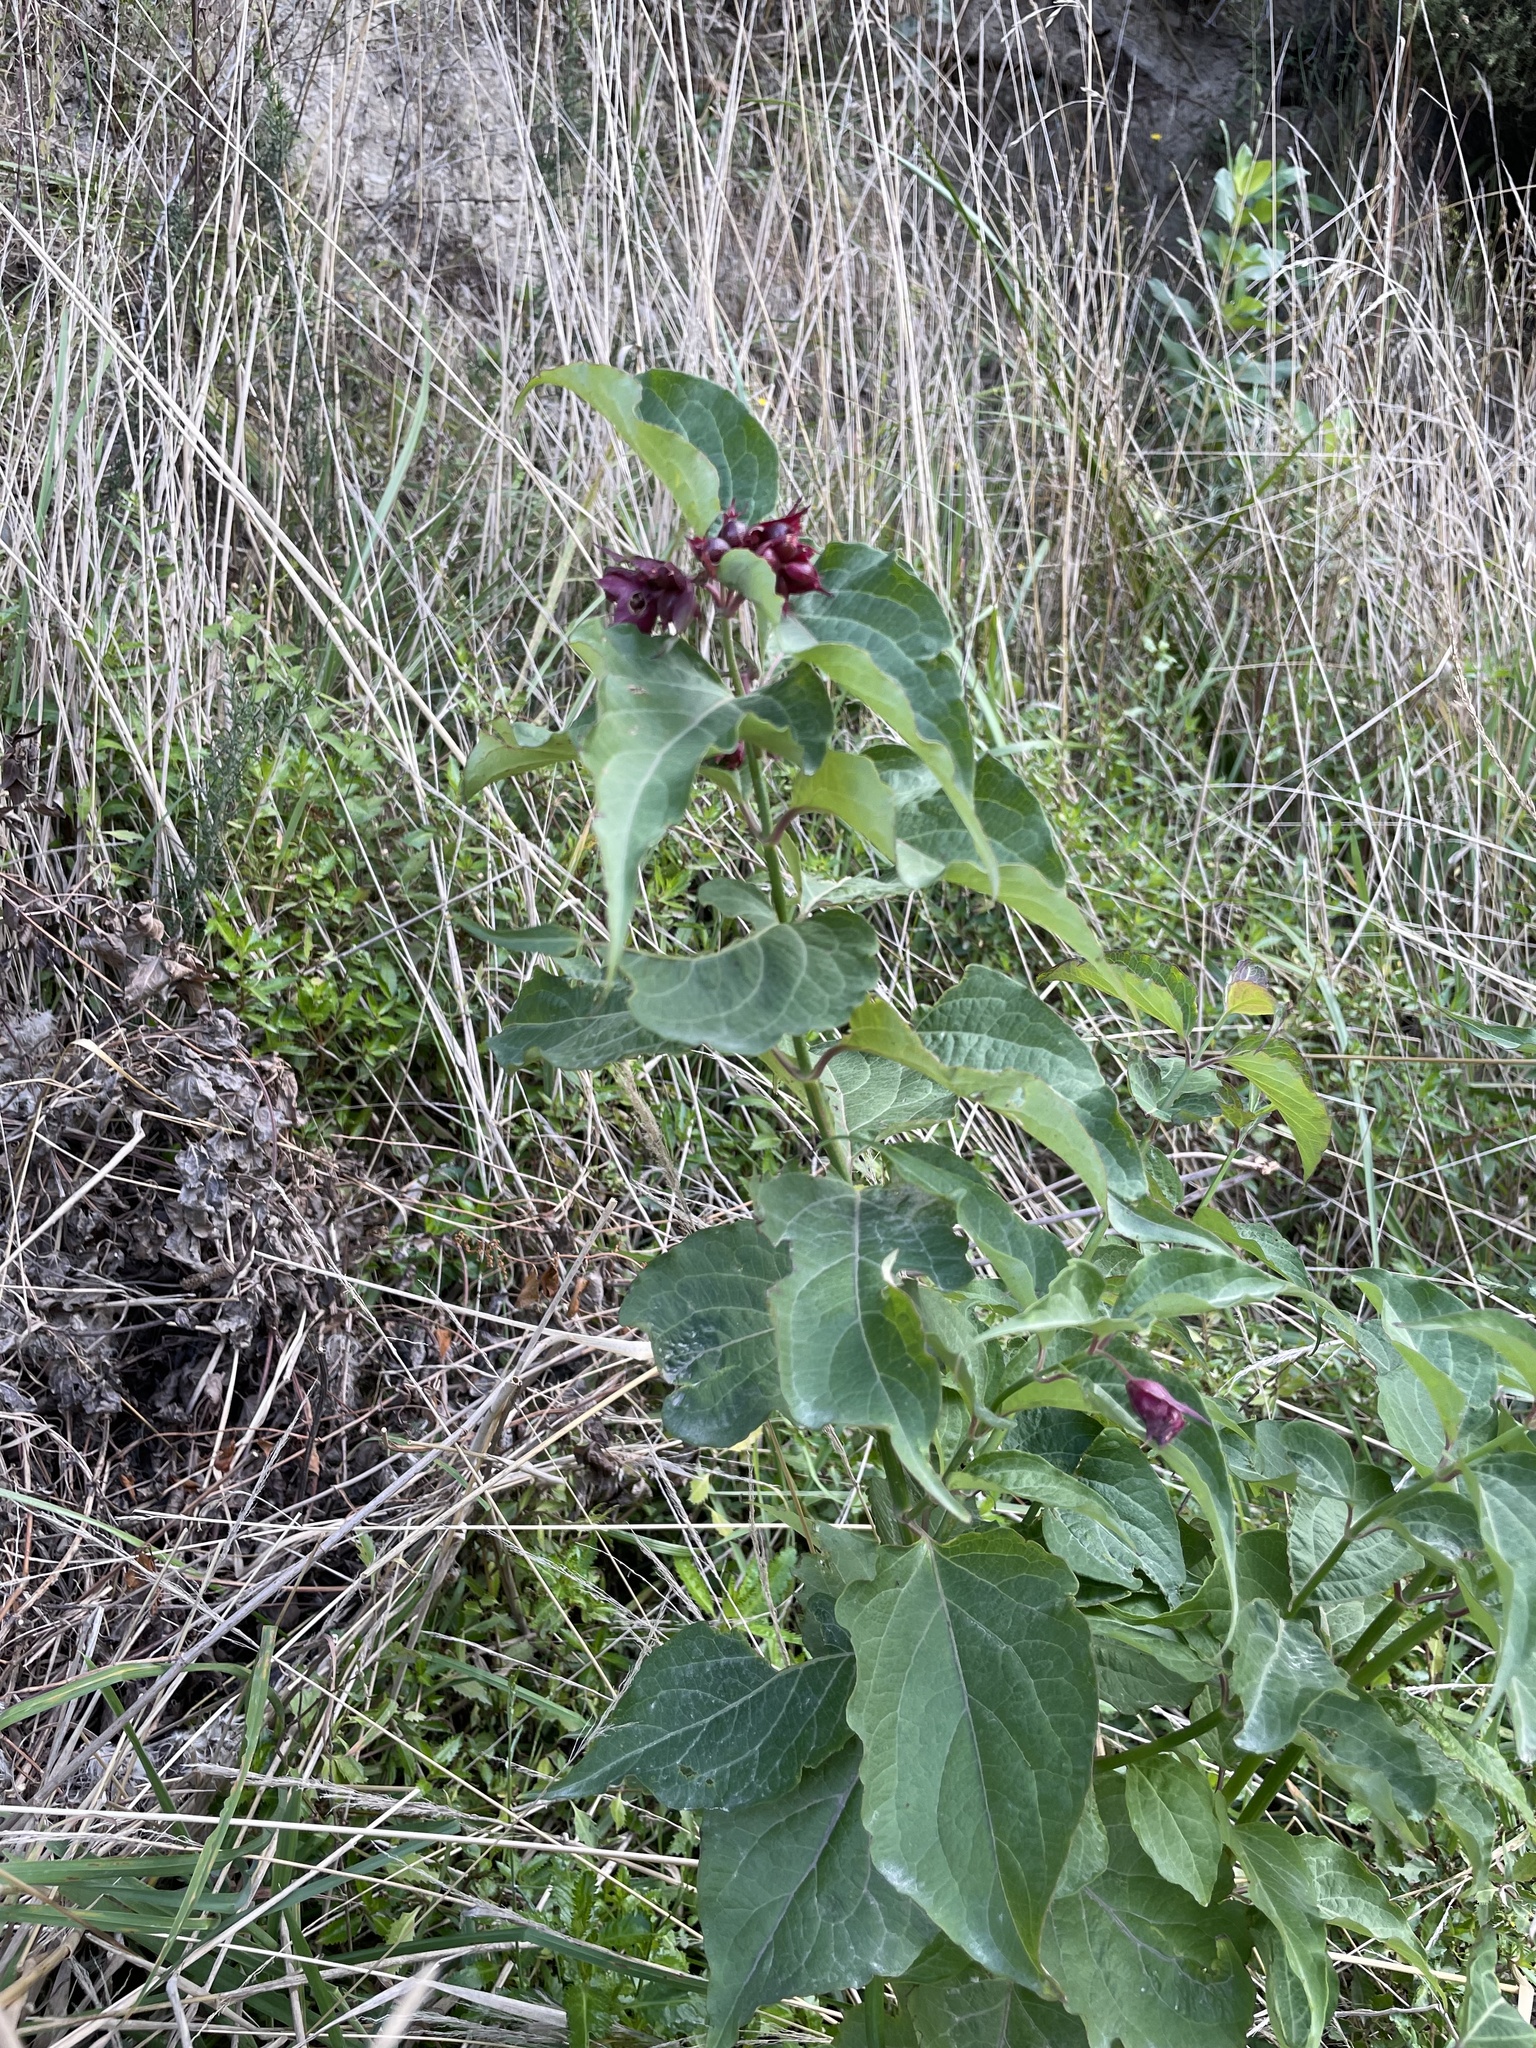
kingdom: Plantae
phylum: Tracheophyta
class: Magnoliopsida
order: Dipsacales
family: Caprifoliaceae
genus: Leycesteria
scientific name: Leycesteria formosa
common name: Himalayan honeysuckle
